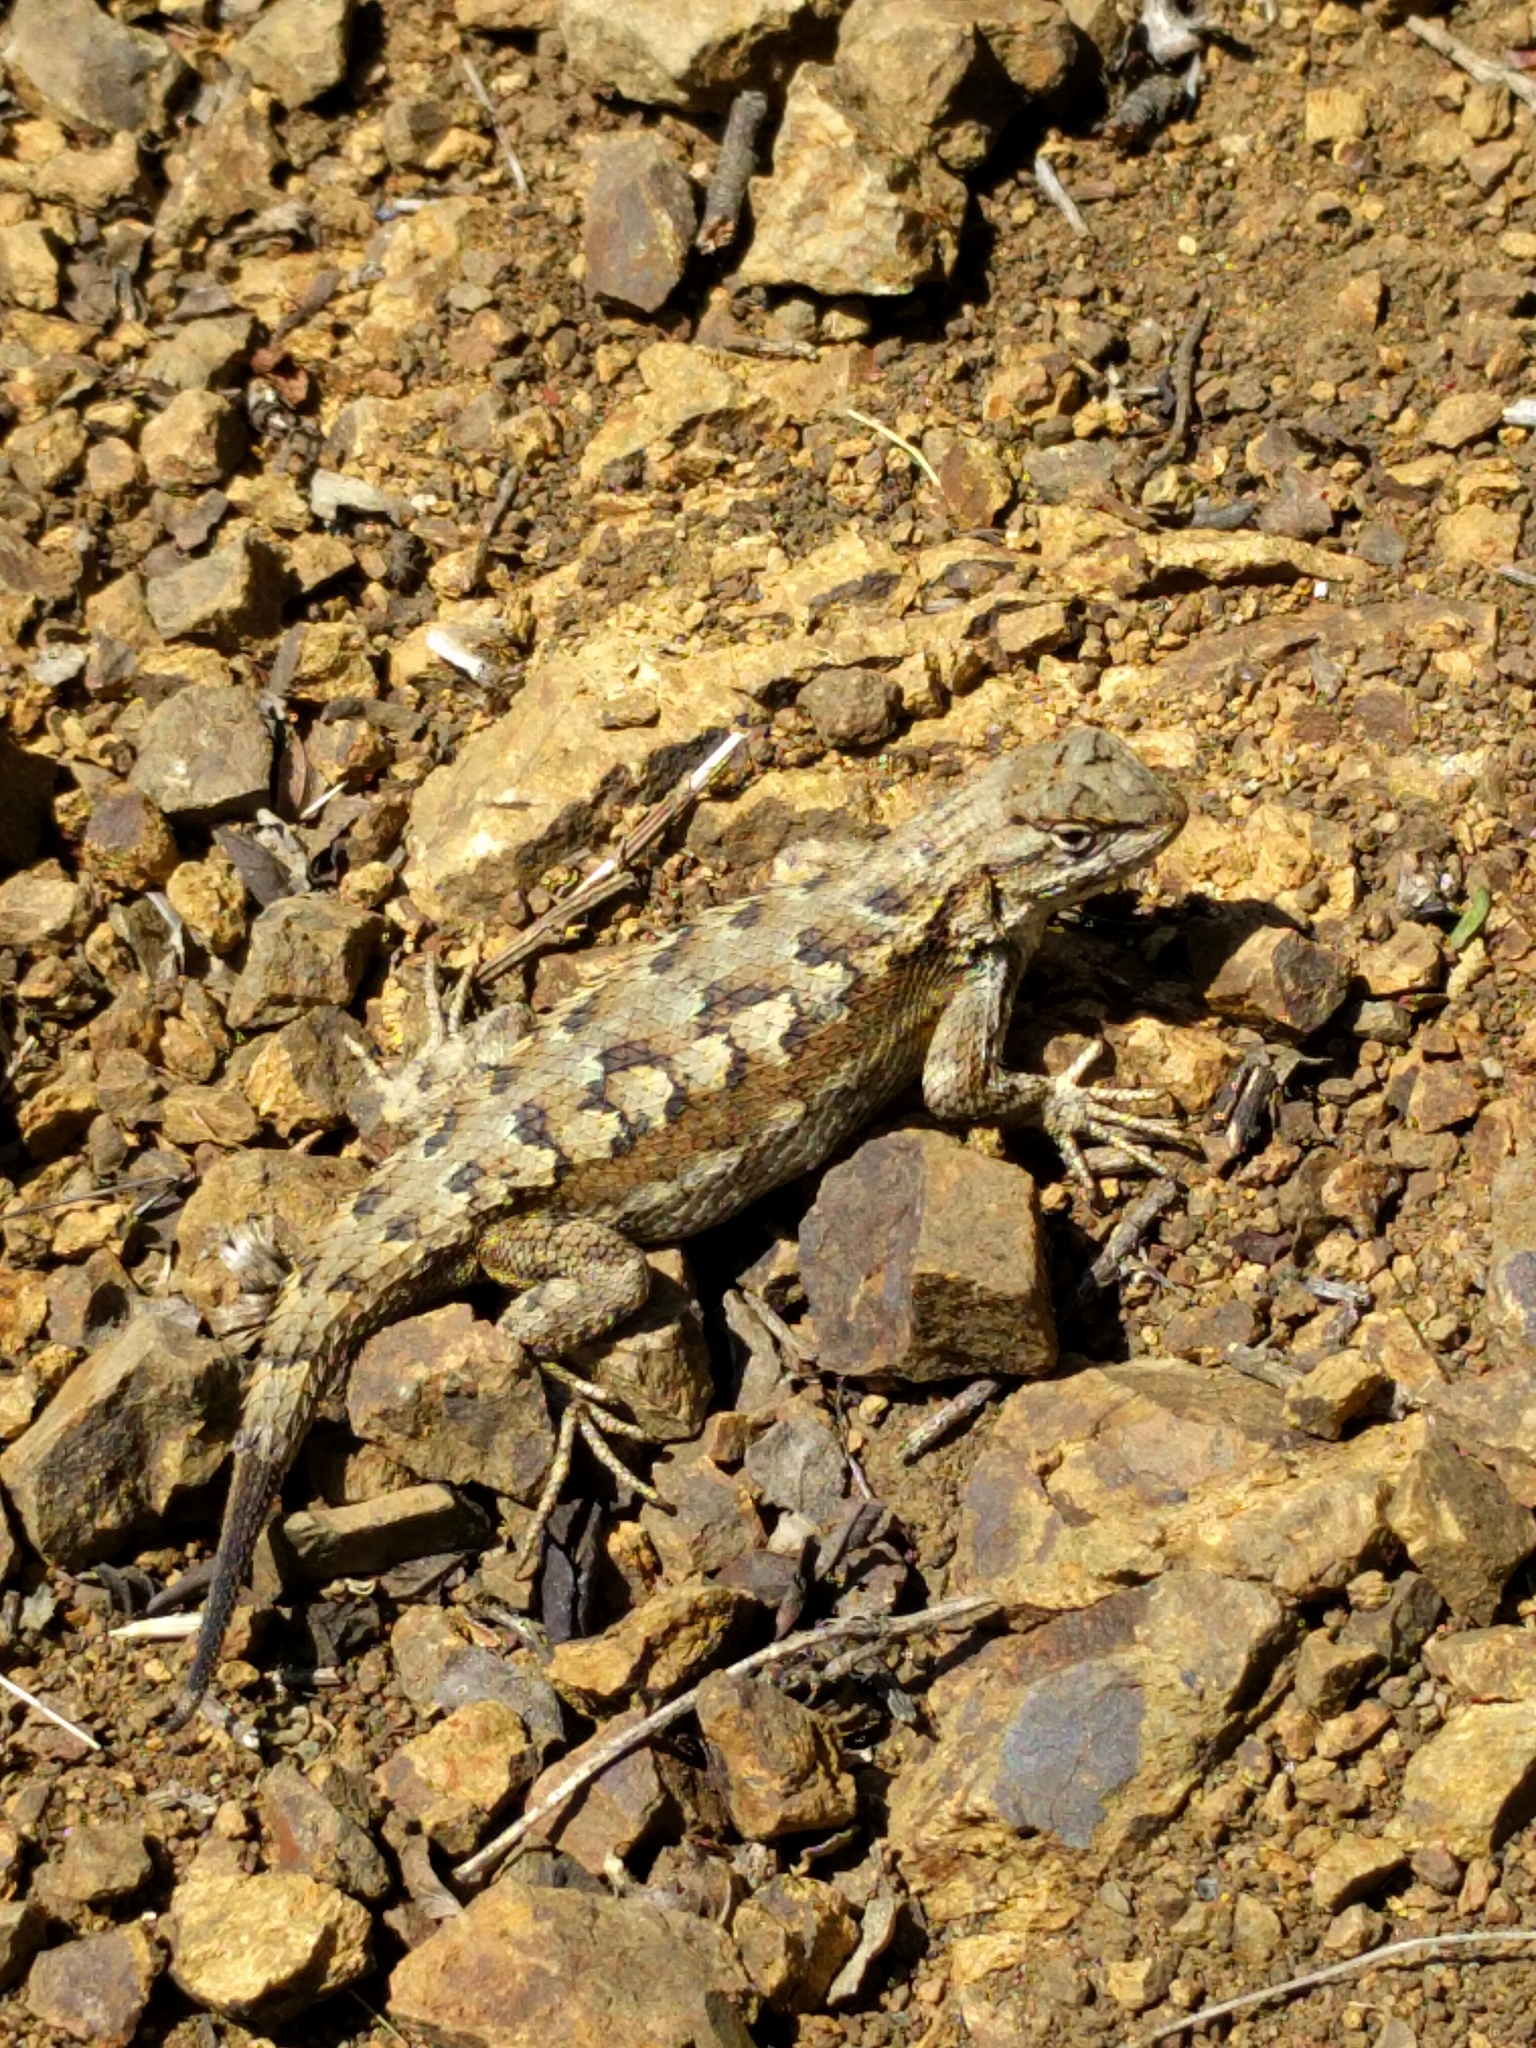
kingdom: Animalia
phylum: Chordata
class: Squamata
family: Phrynosomatidae
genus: Sceloporus
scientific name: Sceloporus occidentalis
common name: Western fence lizard
